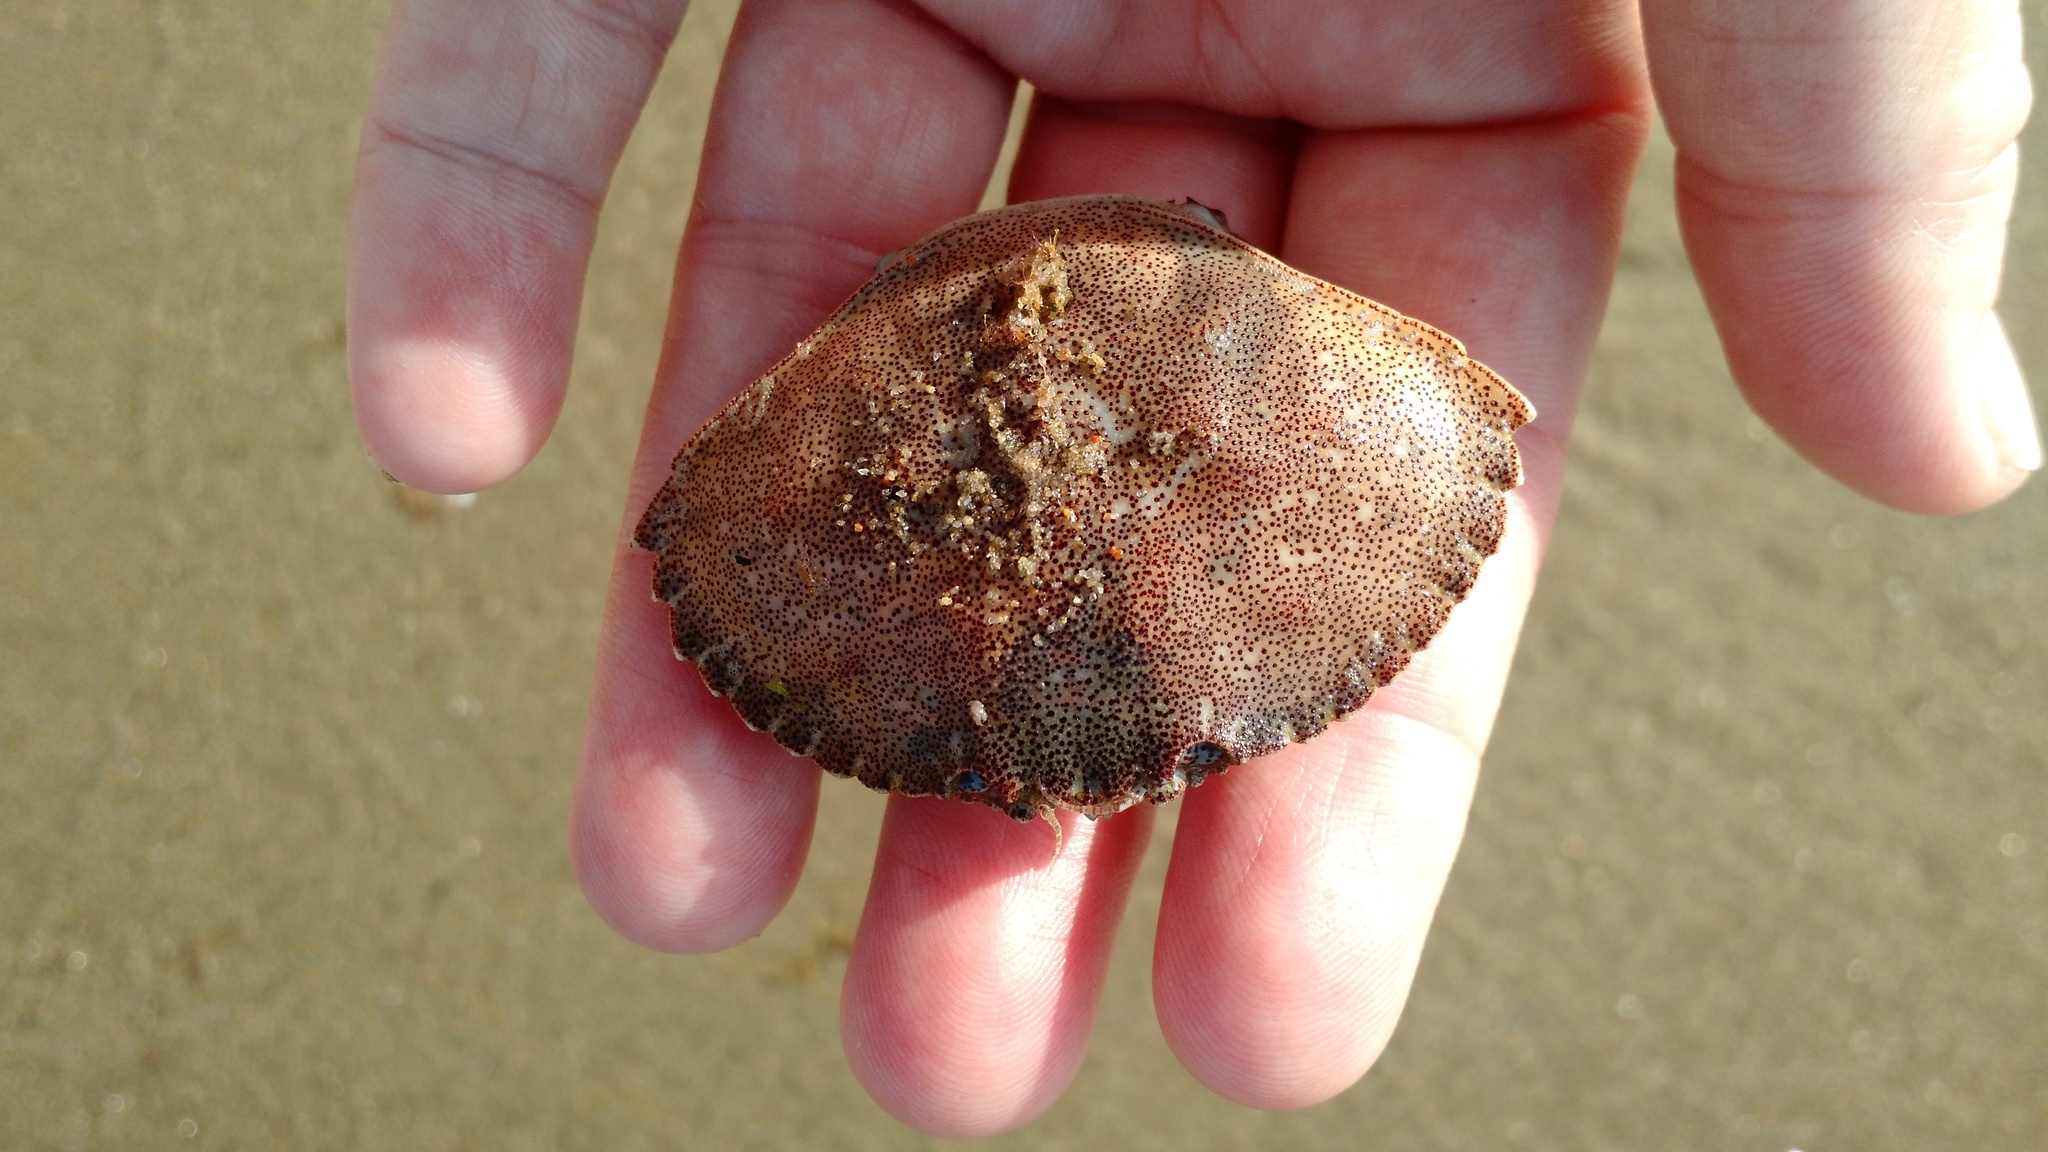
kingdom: Animalia
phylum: Arthropoda
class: Malacostraca
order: Decapoda
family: Cancridae
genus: Cancer
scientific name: Cancer irroratus
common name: Atlantic rock crab
